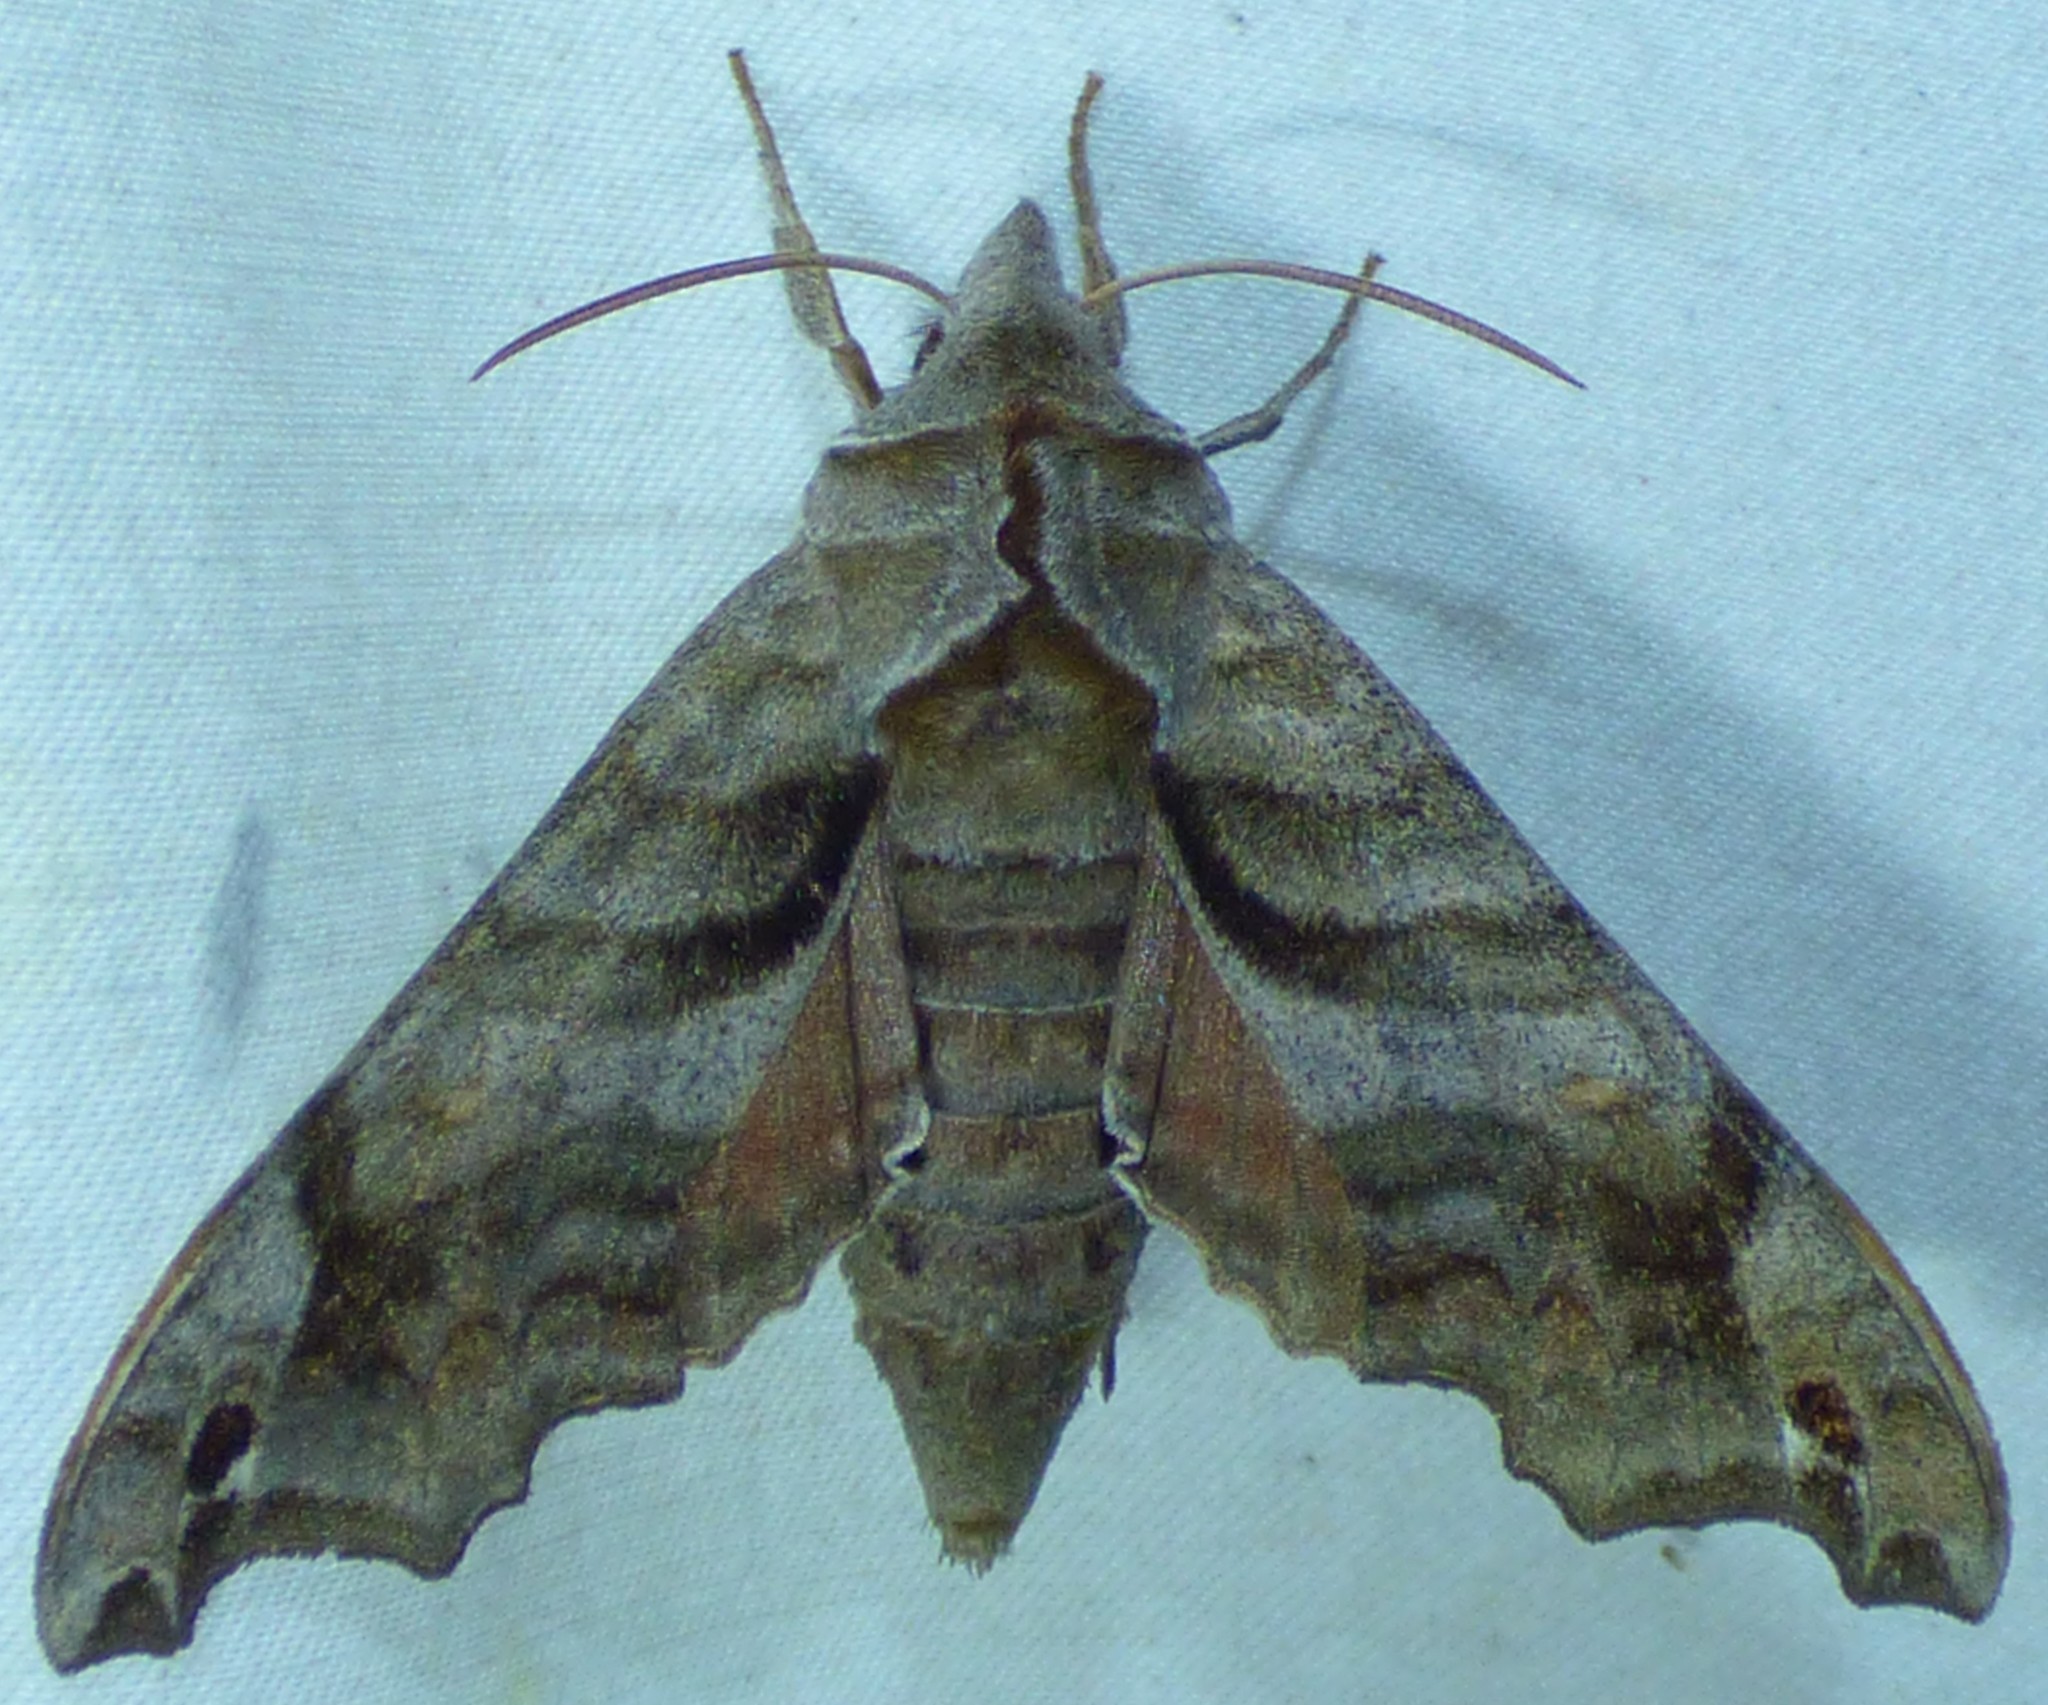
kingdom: Animalia
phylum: Arthropoda
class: Insecta
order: Lepidoptera
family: Sphingidae
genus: Deidamia
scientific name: Deidamia inscriptum
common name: Lettered sphinx
